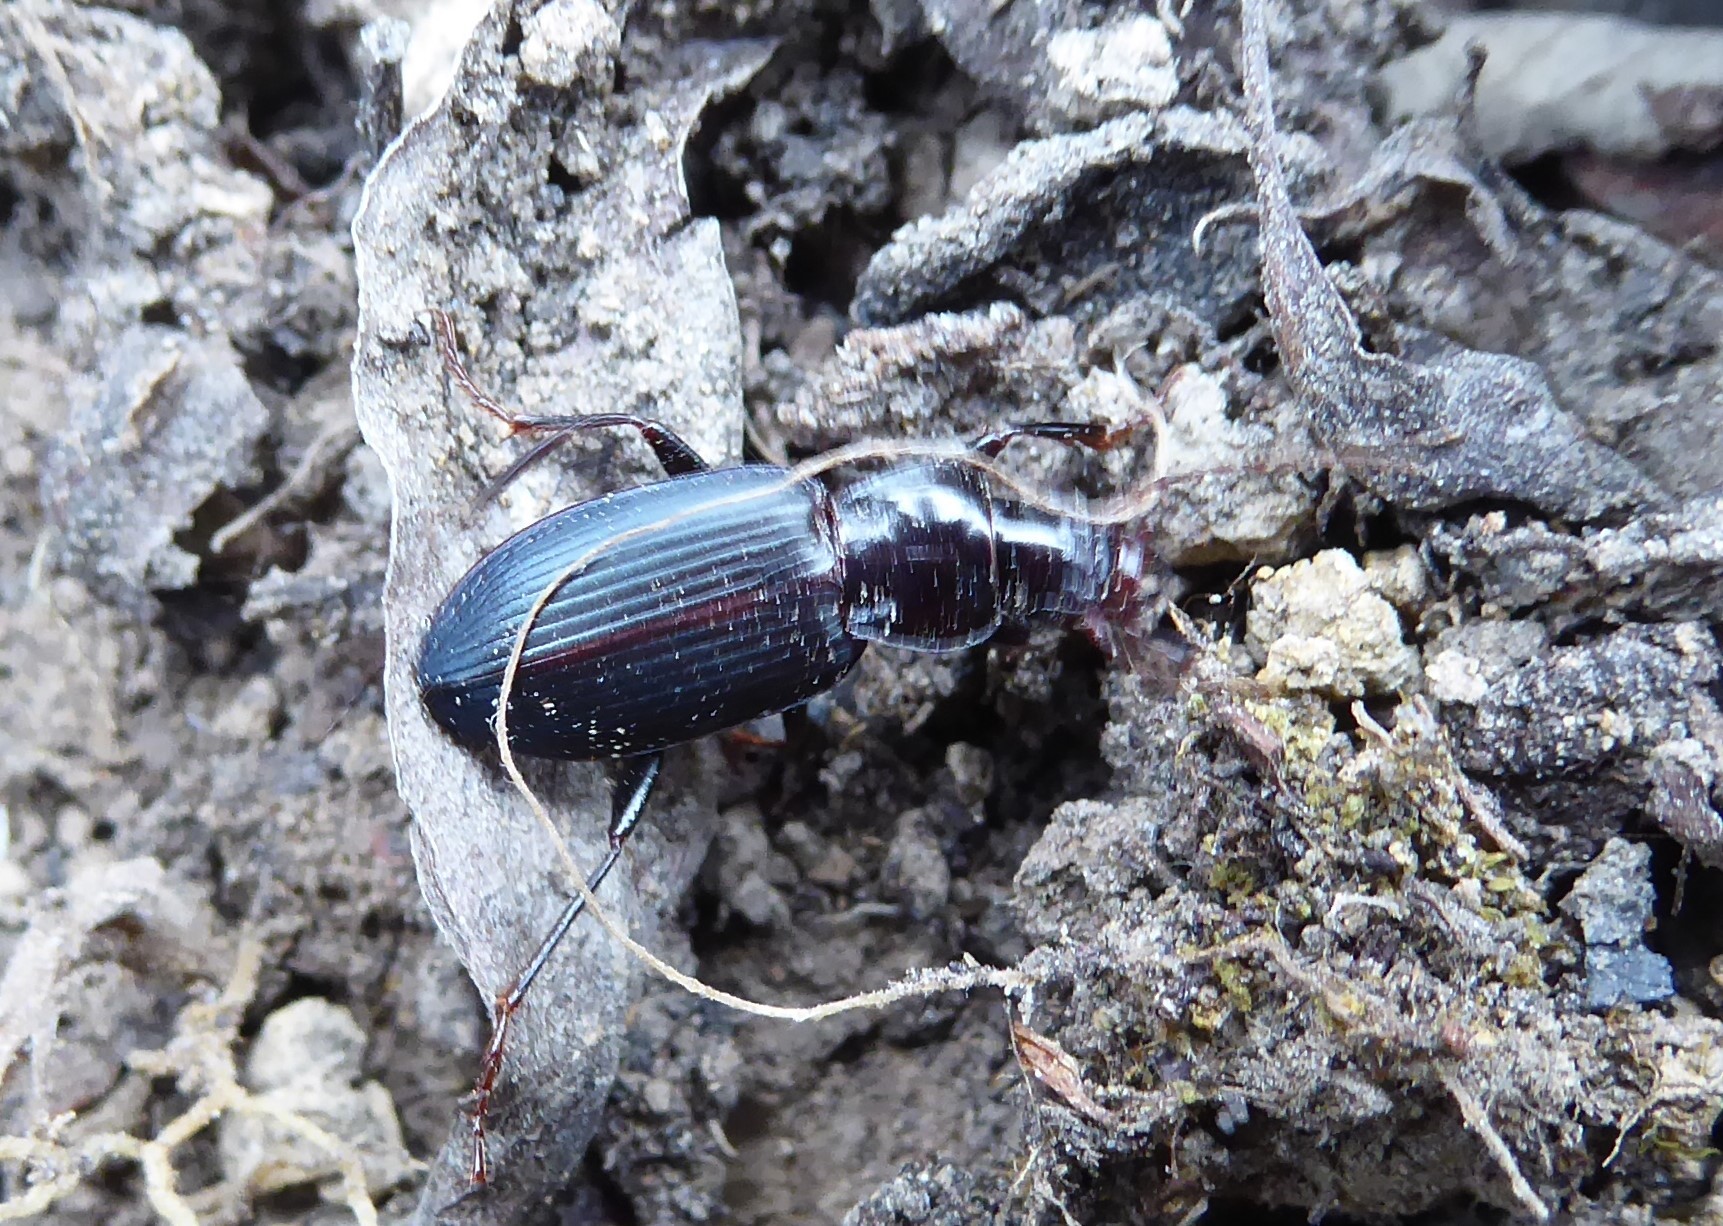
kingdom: Animalia
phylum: Arthropoda
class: Insecta
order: Coleoptera
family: Carabidae
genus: Laemostenus
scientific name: Laemostenus complanatus
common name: Cosmopolitan ground beetle
